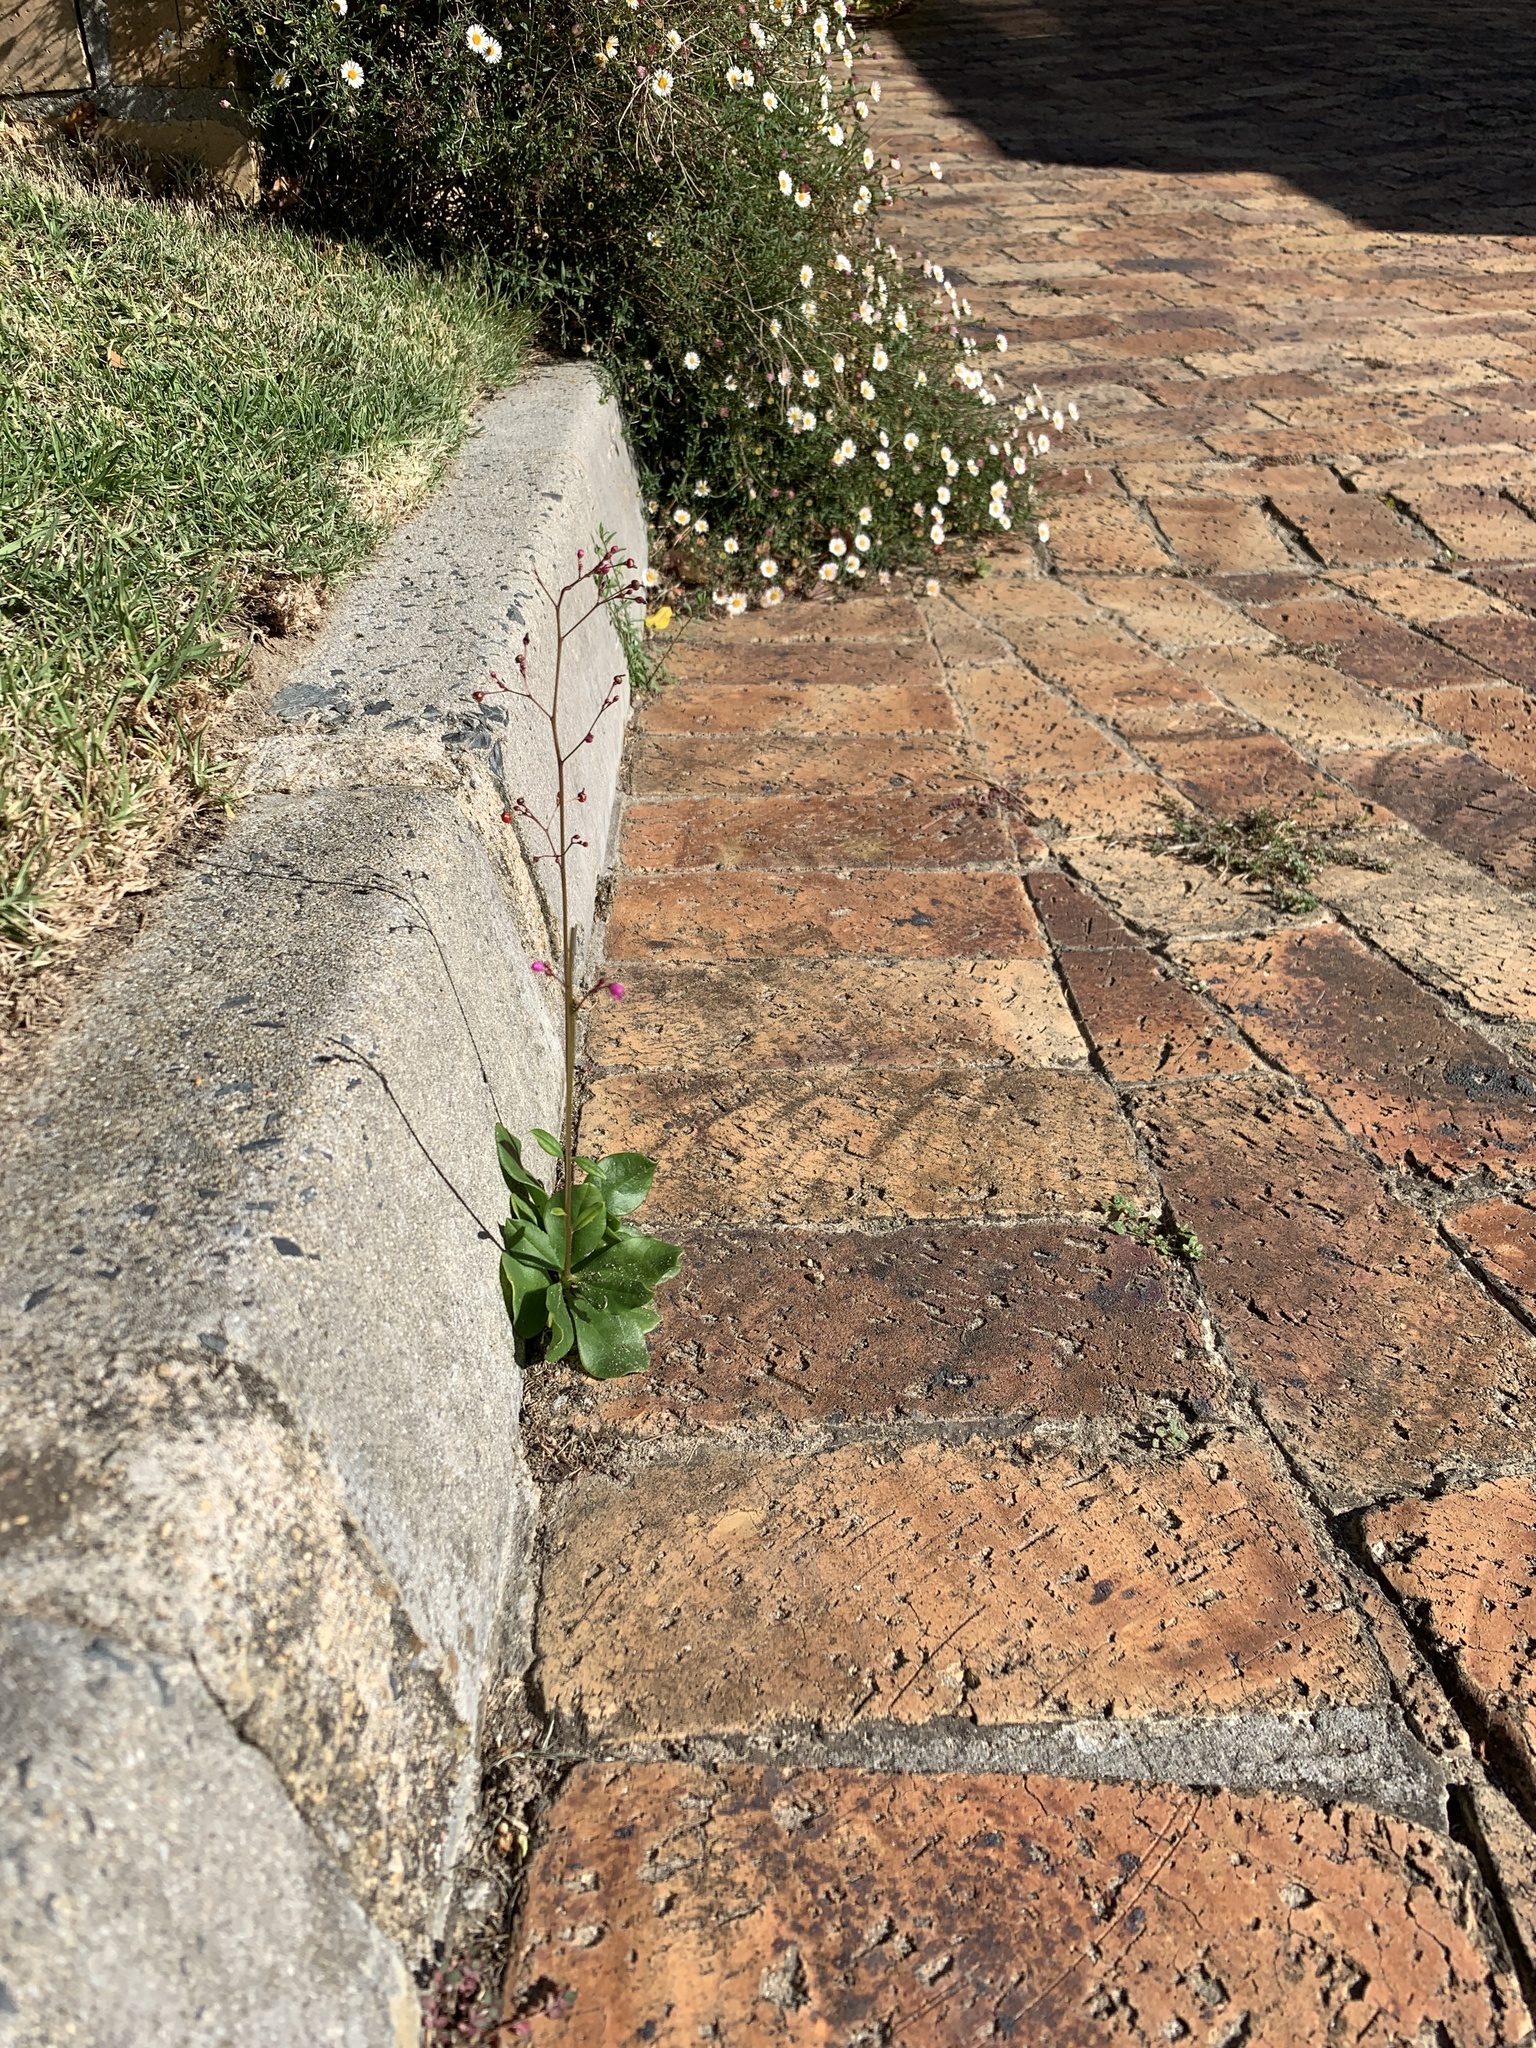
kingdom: Plantae
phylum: Tracheophyta
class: Magnoliopsida
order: Caryophyllales
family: Talinaceae
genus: Talinum
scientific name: Talinum paniculatum
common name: Jewels of opar
